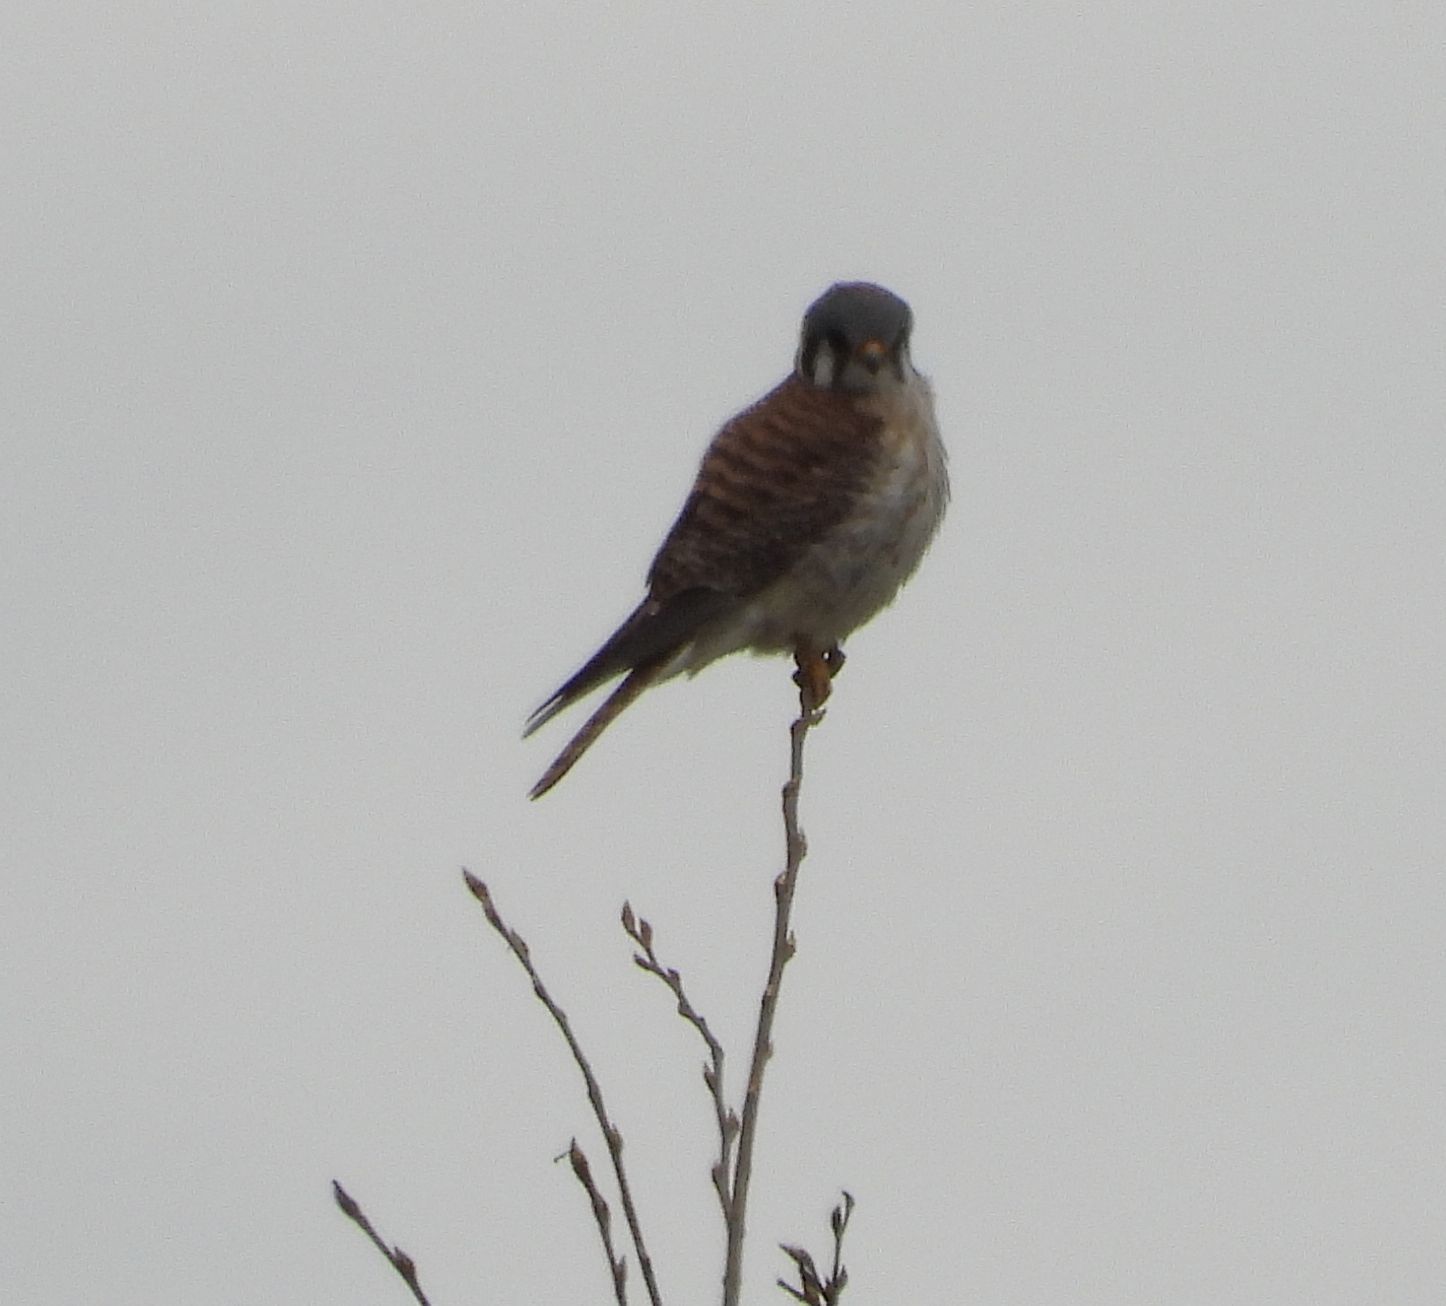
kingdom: Animalia
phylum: Chordata
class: Aves
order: Falconiformes
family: Falconidae
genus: Falco
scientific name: Falco sparverius
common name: American kestrel
